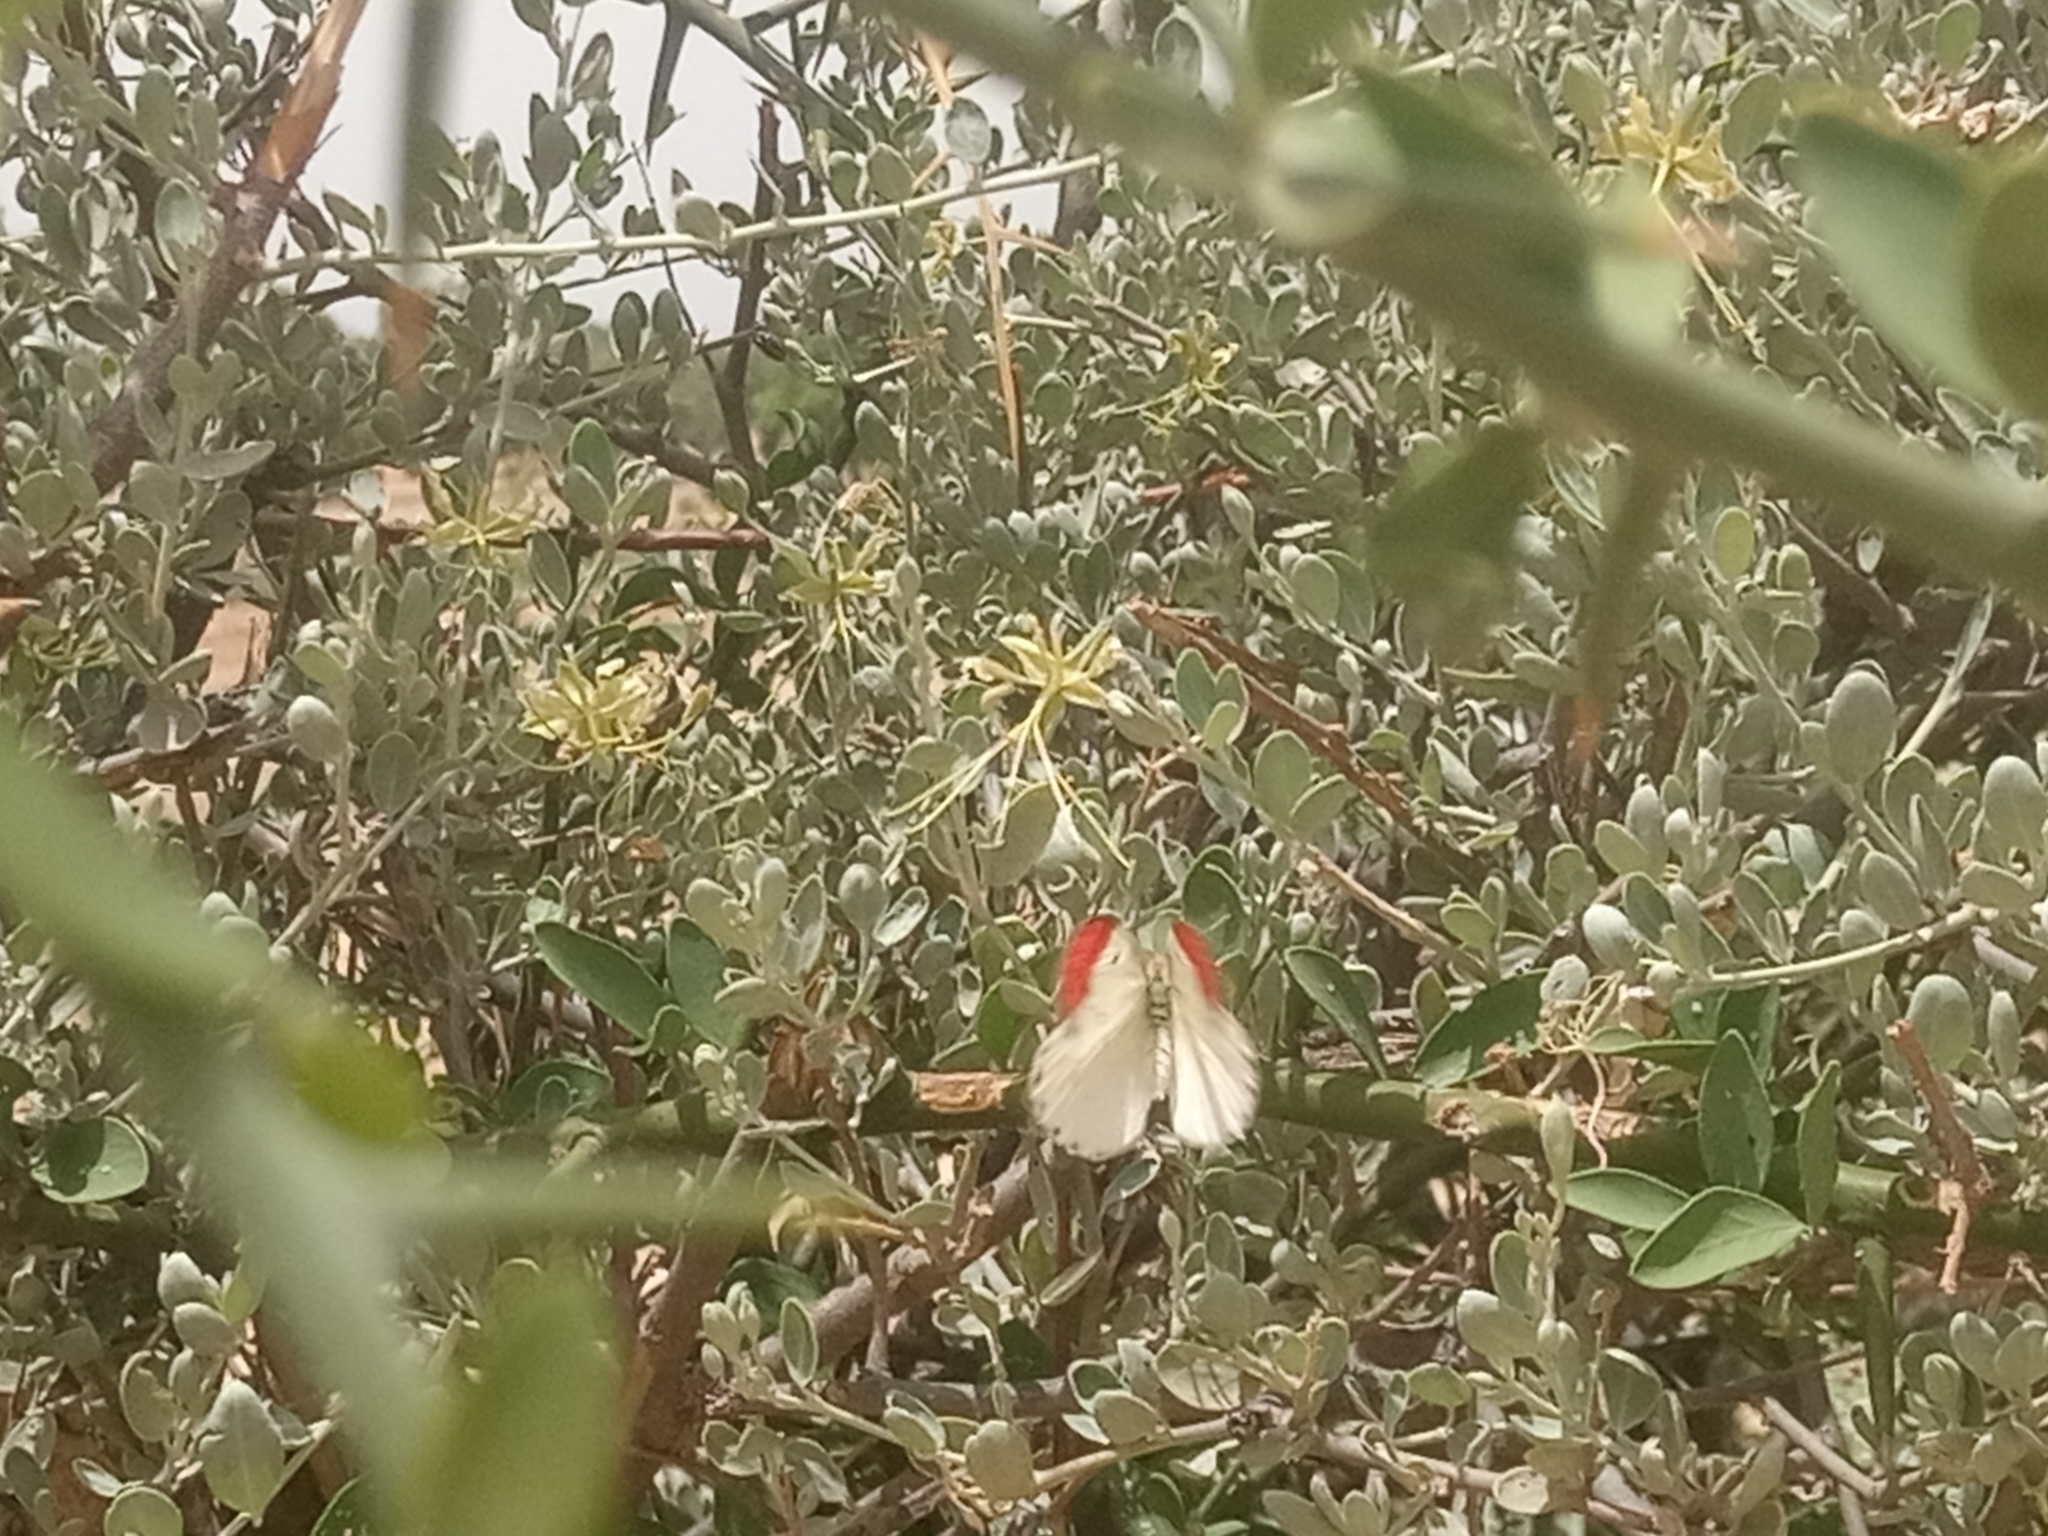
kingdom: Animalia
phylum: Arthropoda
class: Insecta
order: Lepidoptera
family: Pieridae
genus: Colotis
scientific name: Colotis danae
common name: Crimson tip
